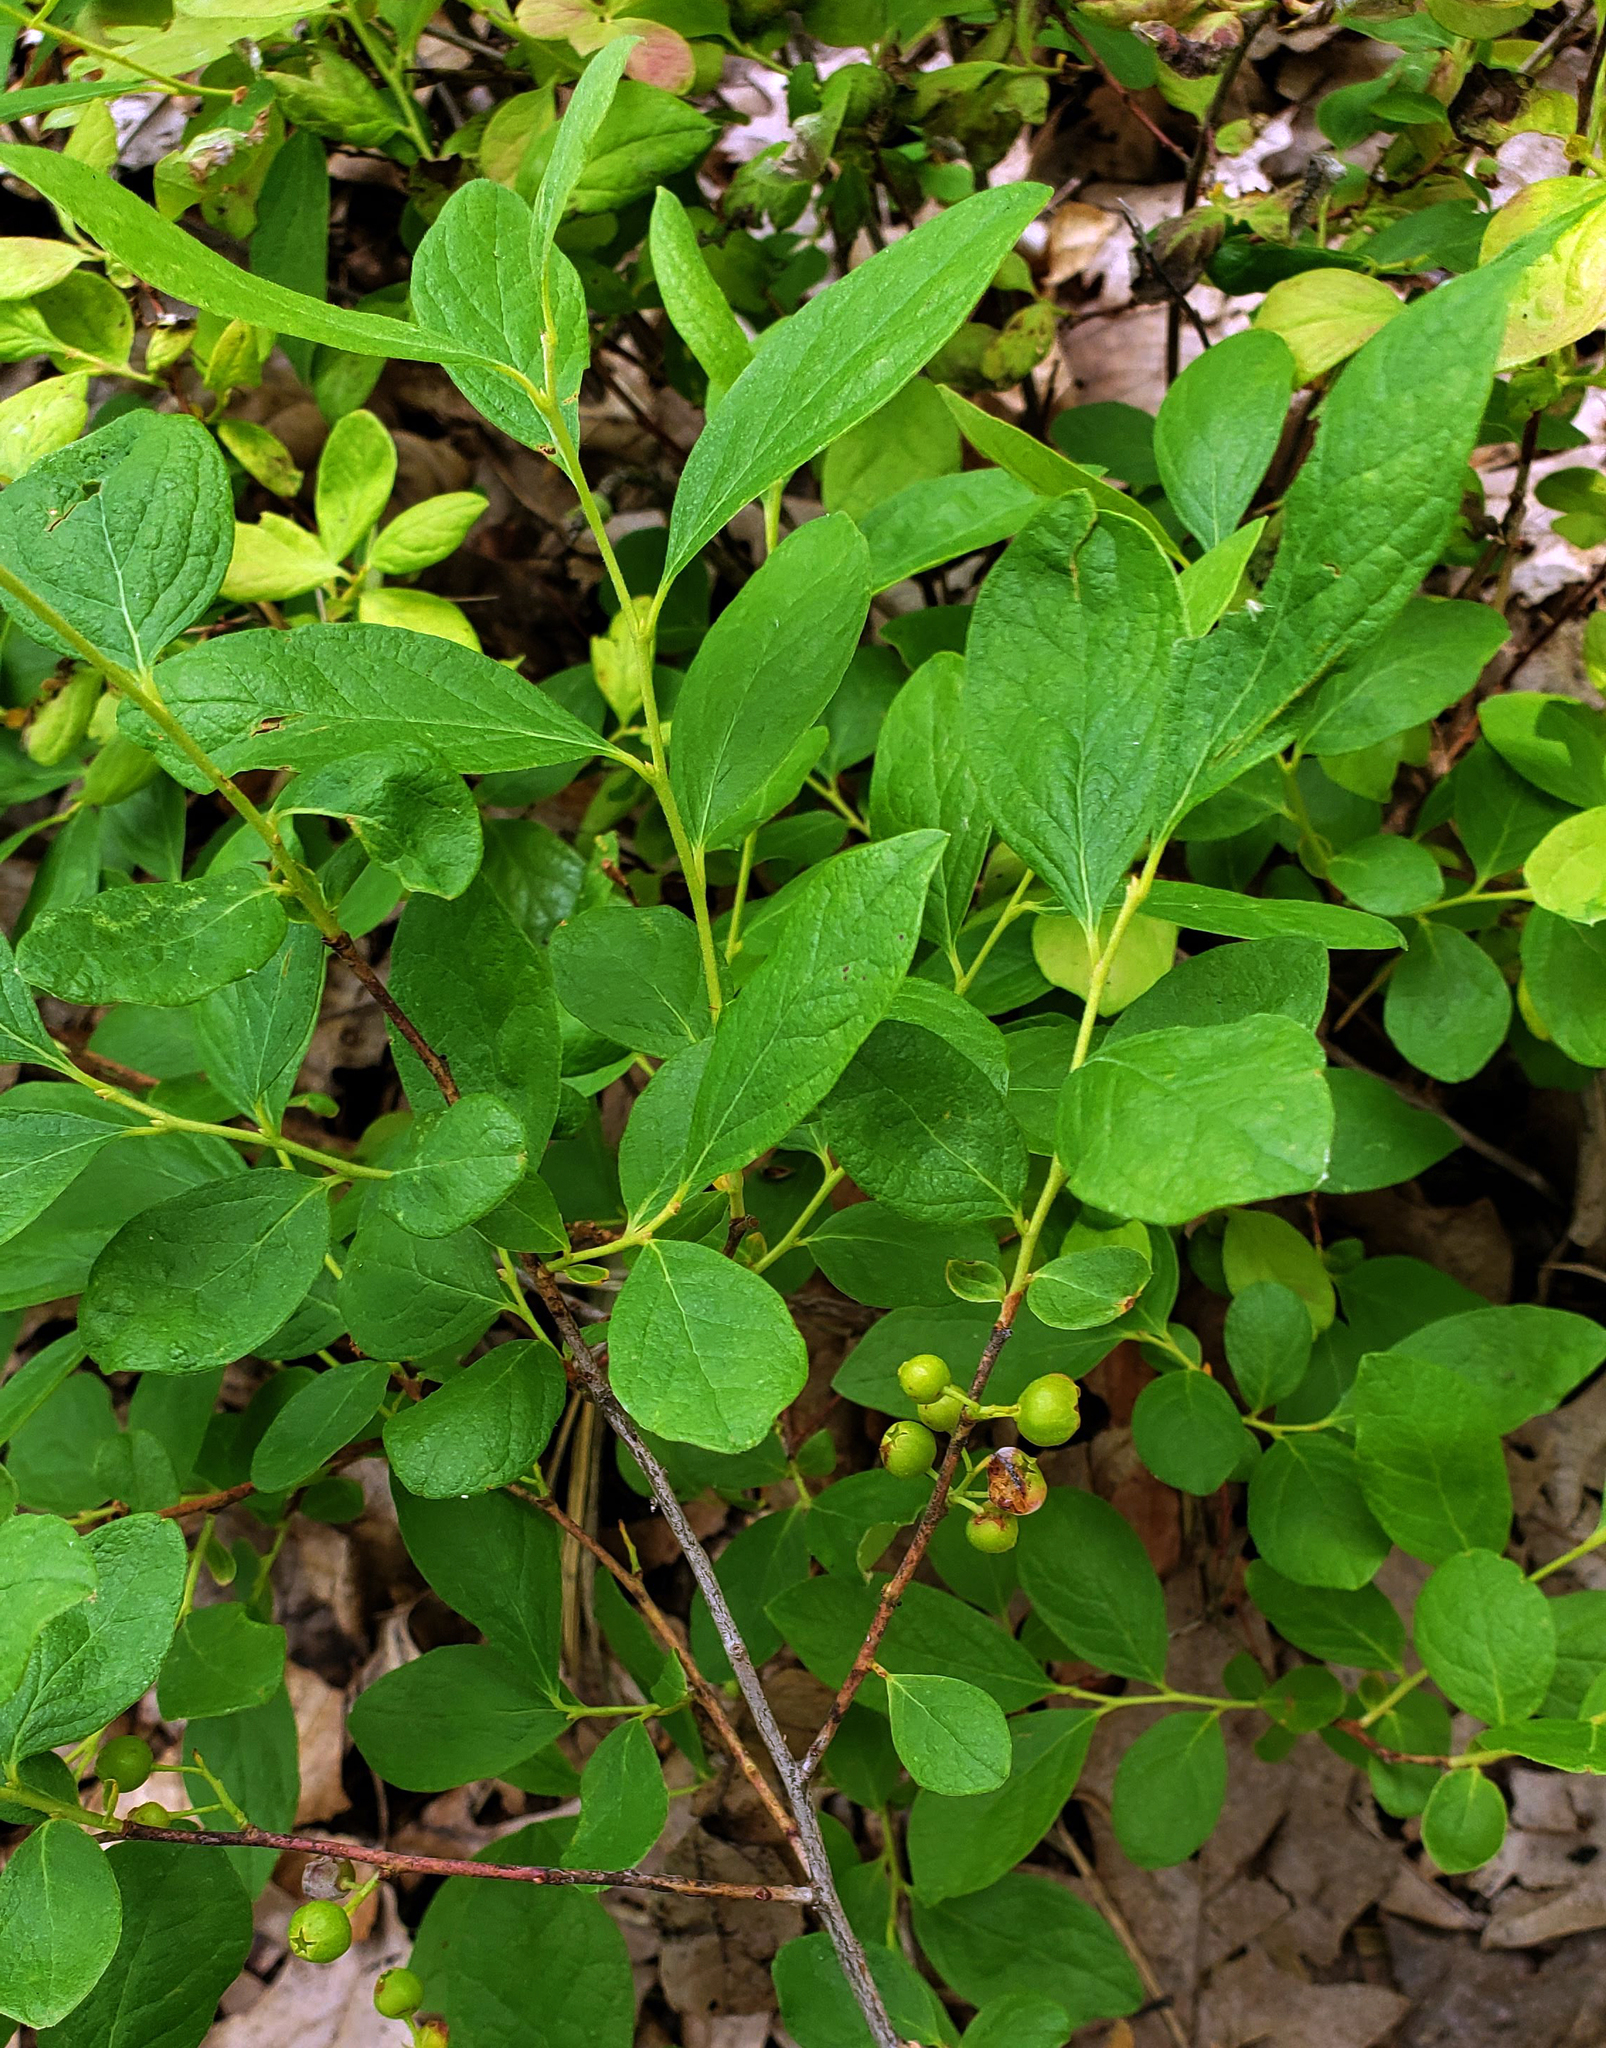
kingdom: Plantae
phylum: Tracheophyta
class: Magnoliopsida
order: Ericales
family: Ericaceae
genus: Gaylussacia
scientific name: Gaylussacia baccata
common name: Black huckleberry
